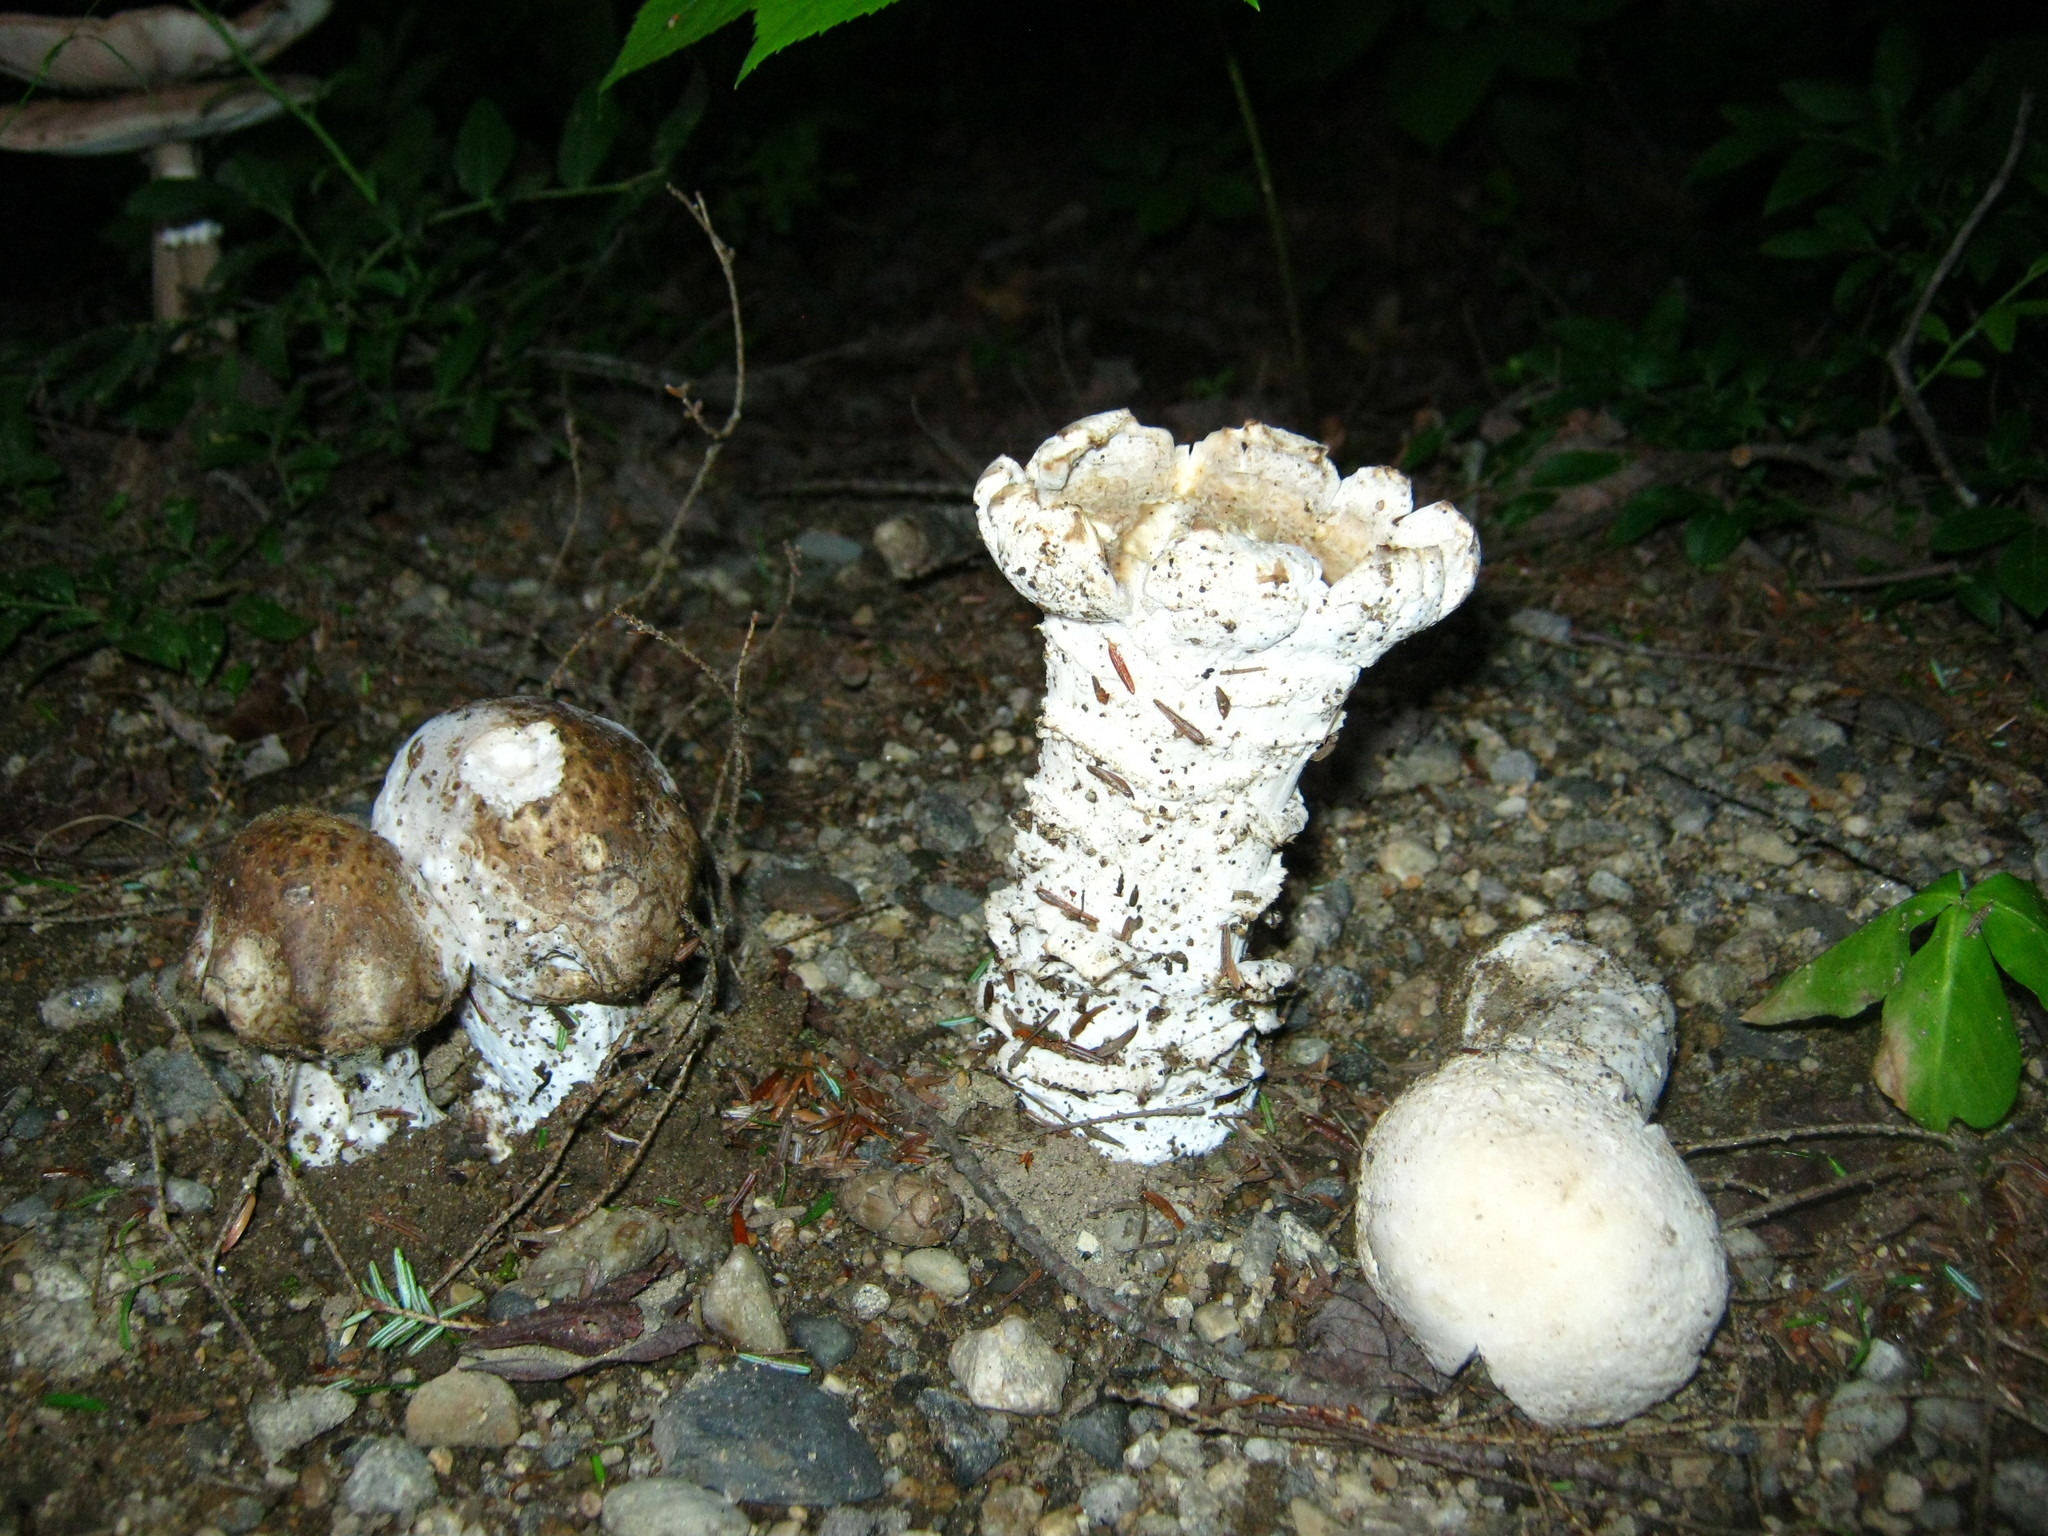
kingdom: Fungi
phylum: Ascomycota
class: Sordariomycetes
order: Hypocreales
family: Hypocreaceae
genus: Hypomyces
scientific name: Hypomyces hyalinus
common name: Amanita mold
